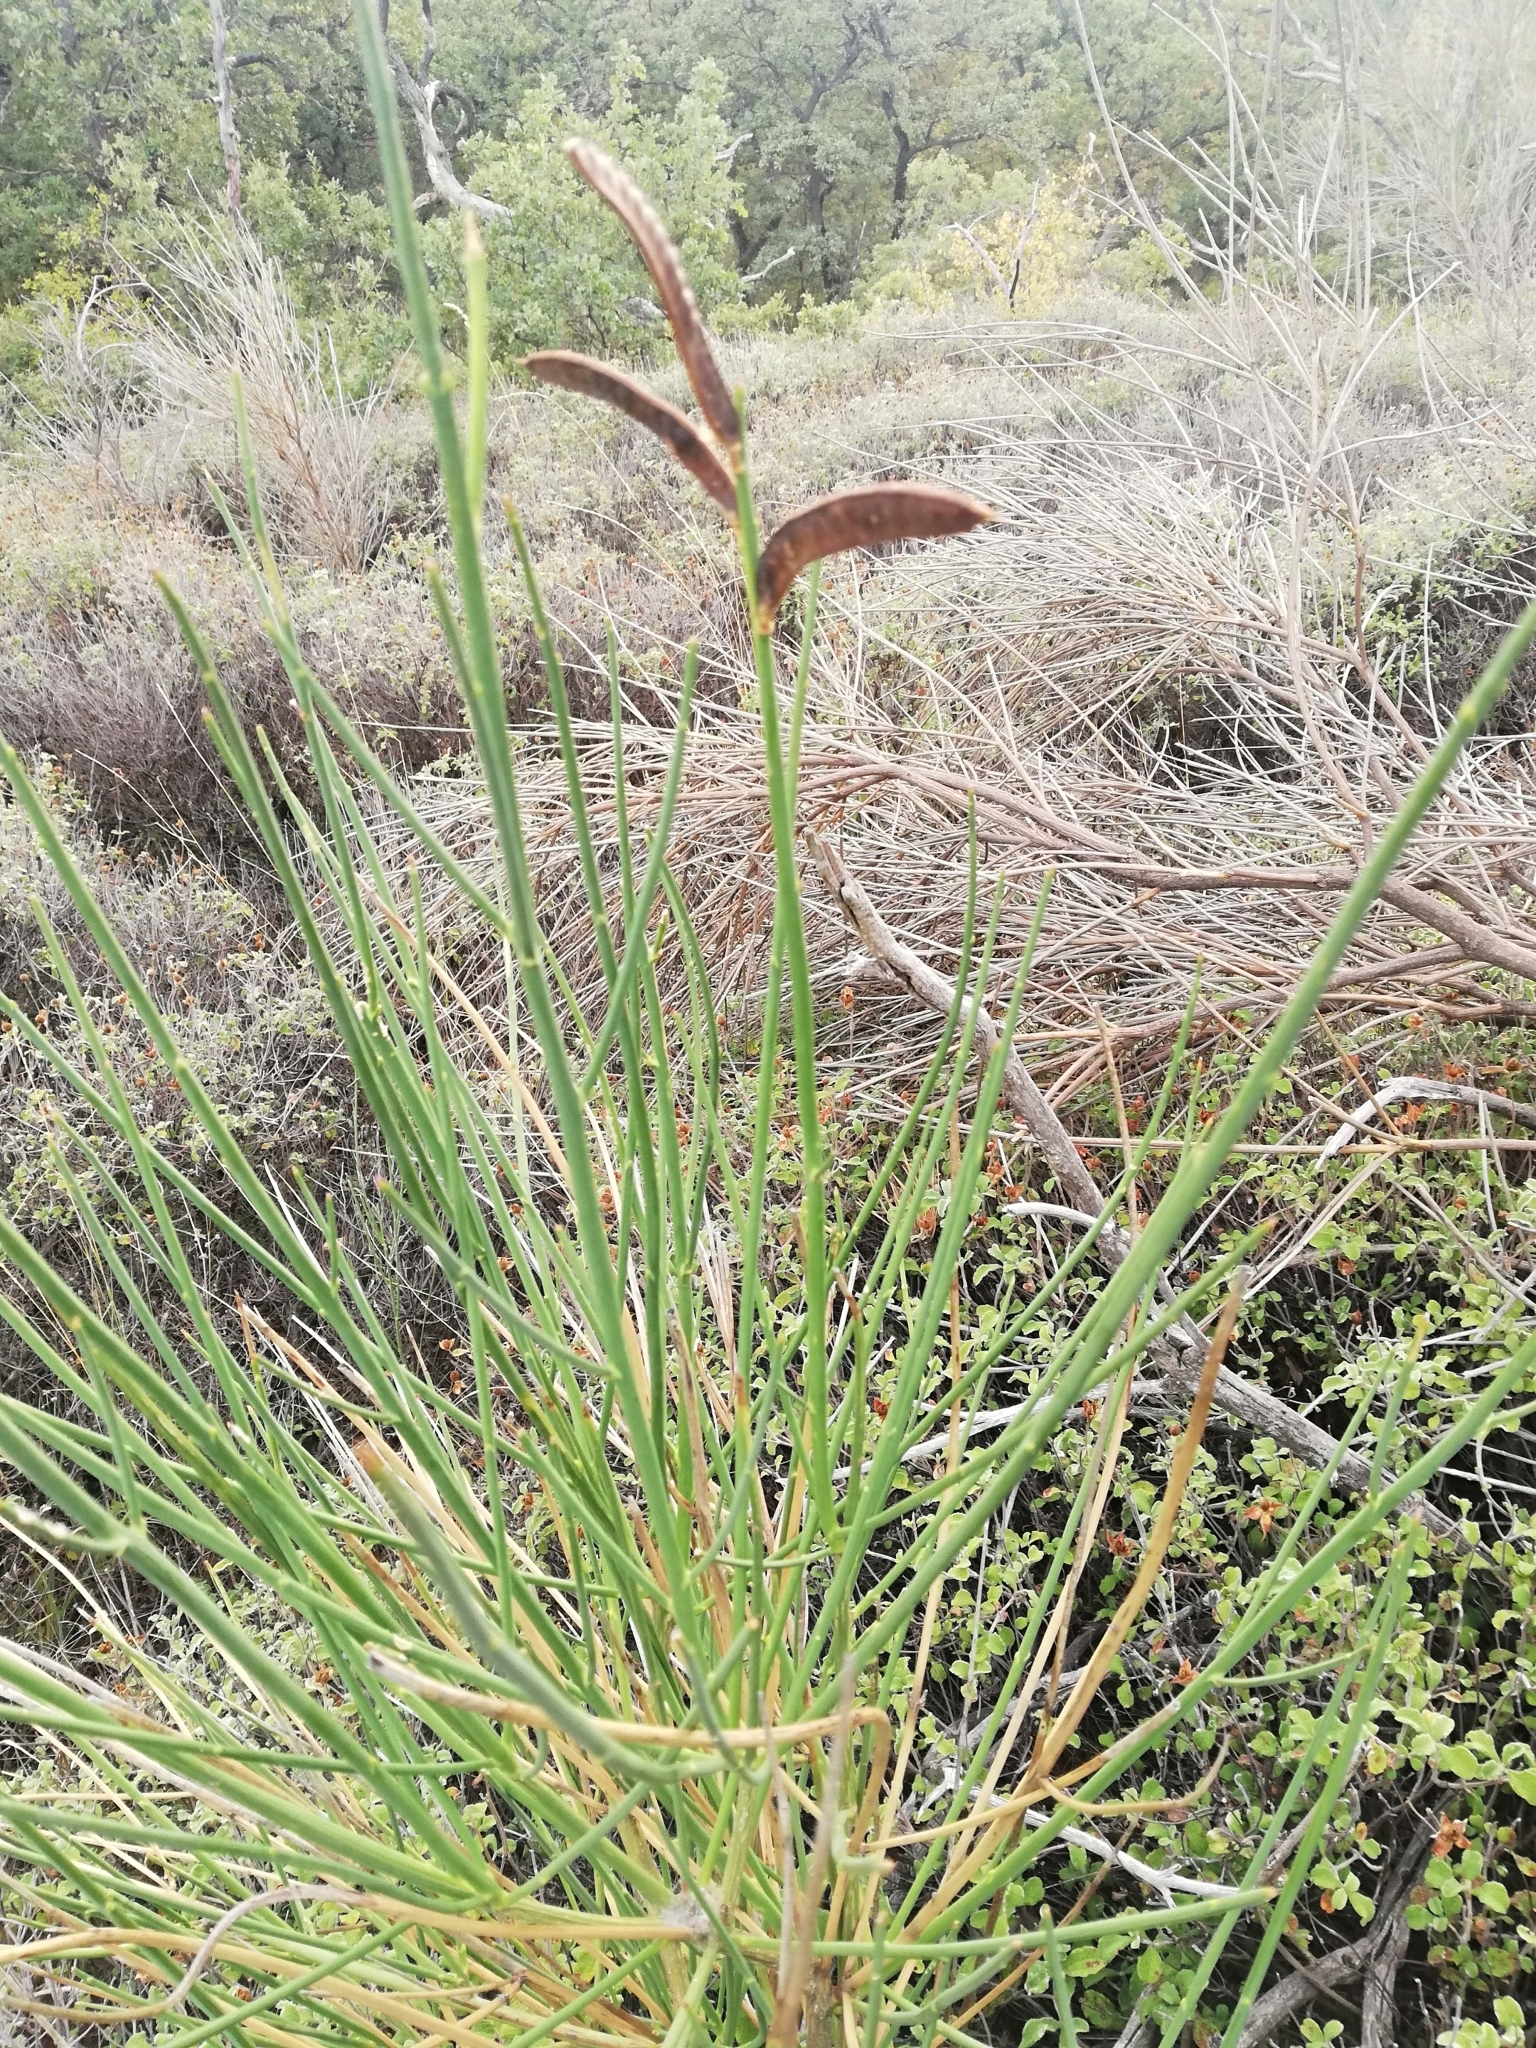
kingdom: Plantae
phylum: Tracheophyta
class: Magnoliopsida
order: Fabales
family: Fabaceae
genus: Spartium
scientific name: Spartium junceum
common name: Spanish broom
